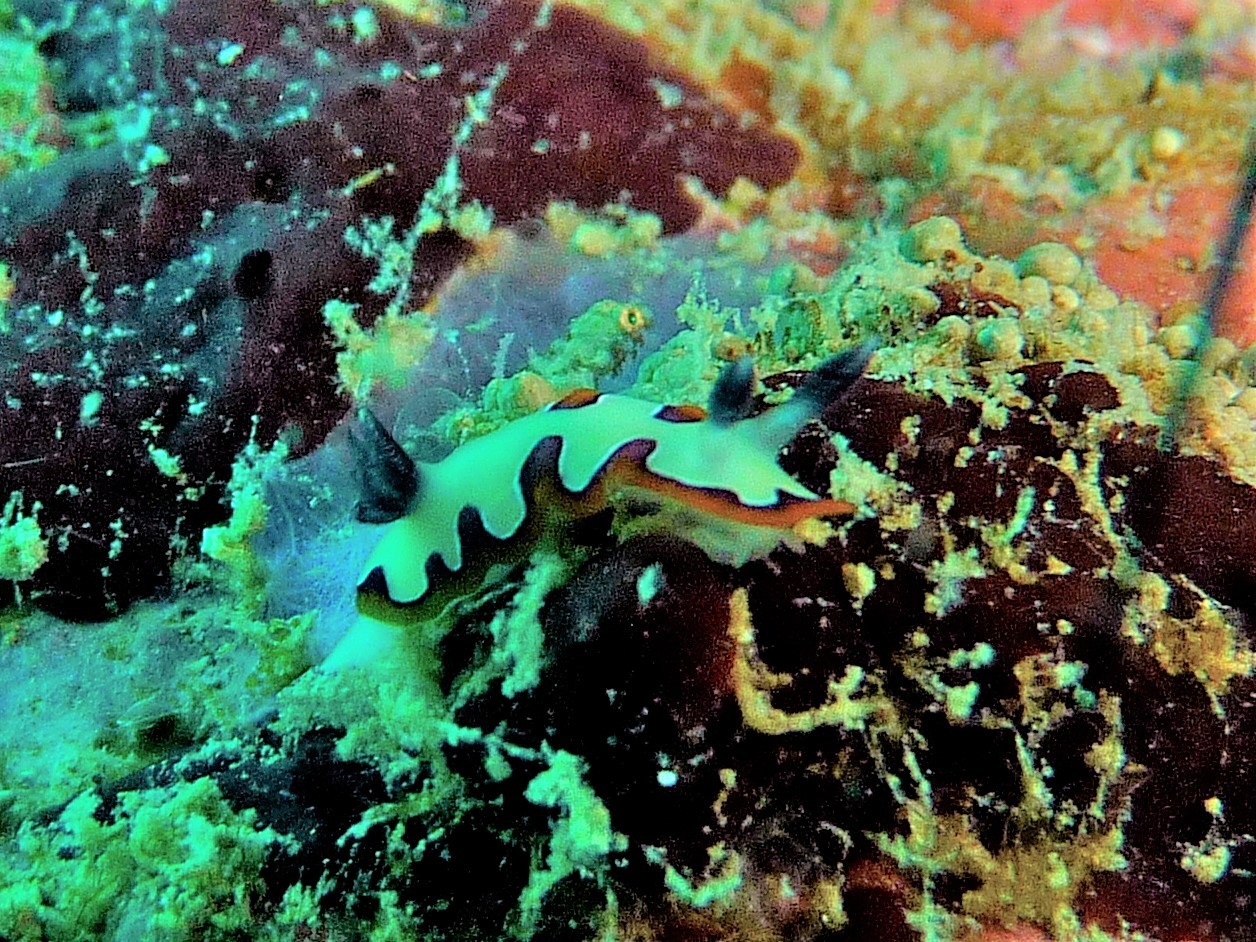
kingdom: Animalia
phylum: Mollusca
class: Gastropoda
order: Nudibranchia
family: Chromodorididae
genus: Goniobranchus
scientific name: Goniobranchus fidelis
